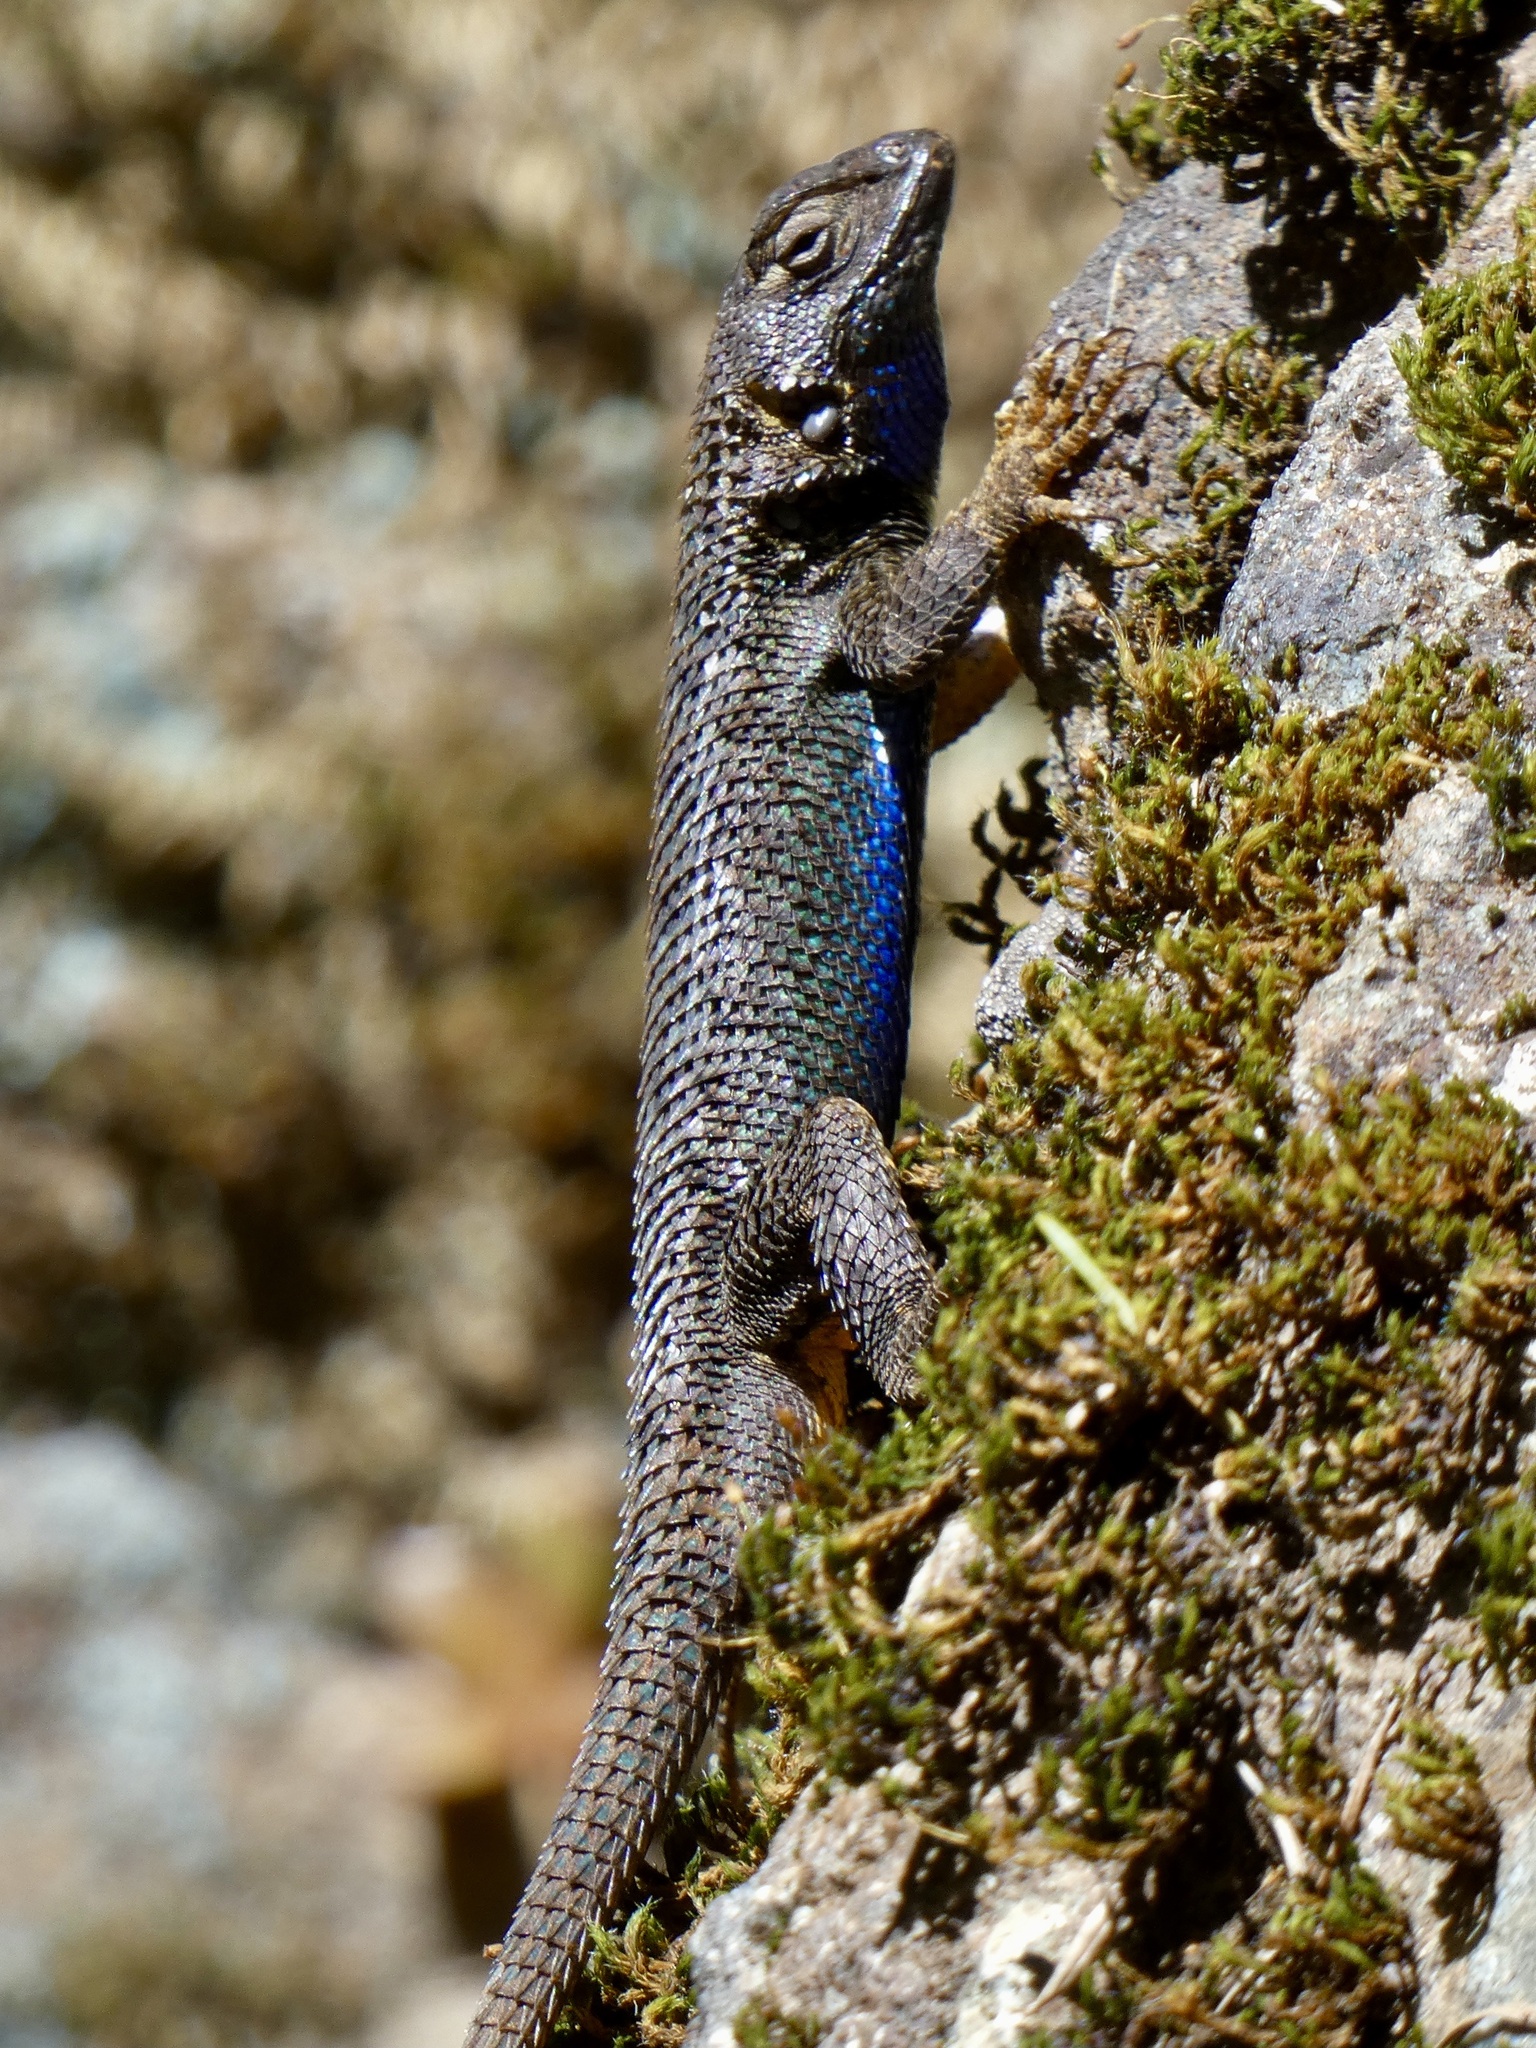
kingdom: Animalia
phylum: Chordata
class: Squamata
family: Phrynosomatidae
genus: Sceloporus
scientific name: Sceloporus occidentalis
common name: Western fence lizard
